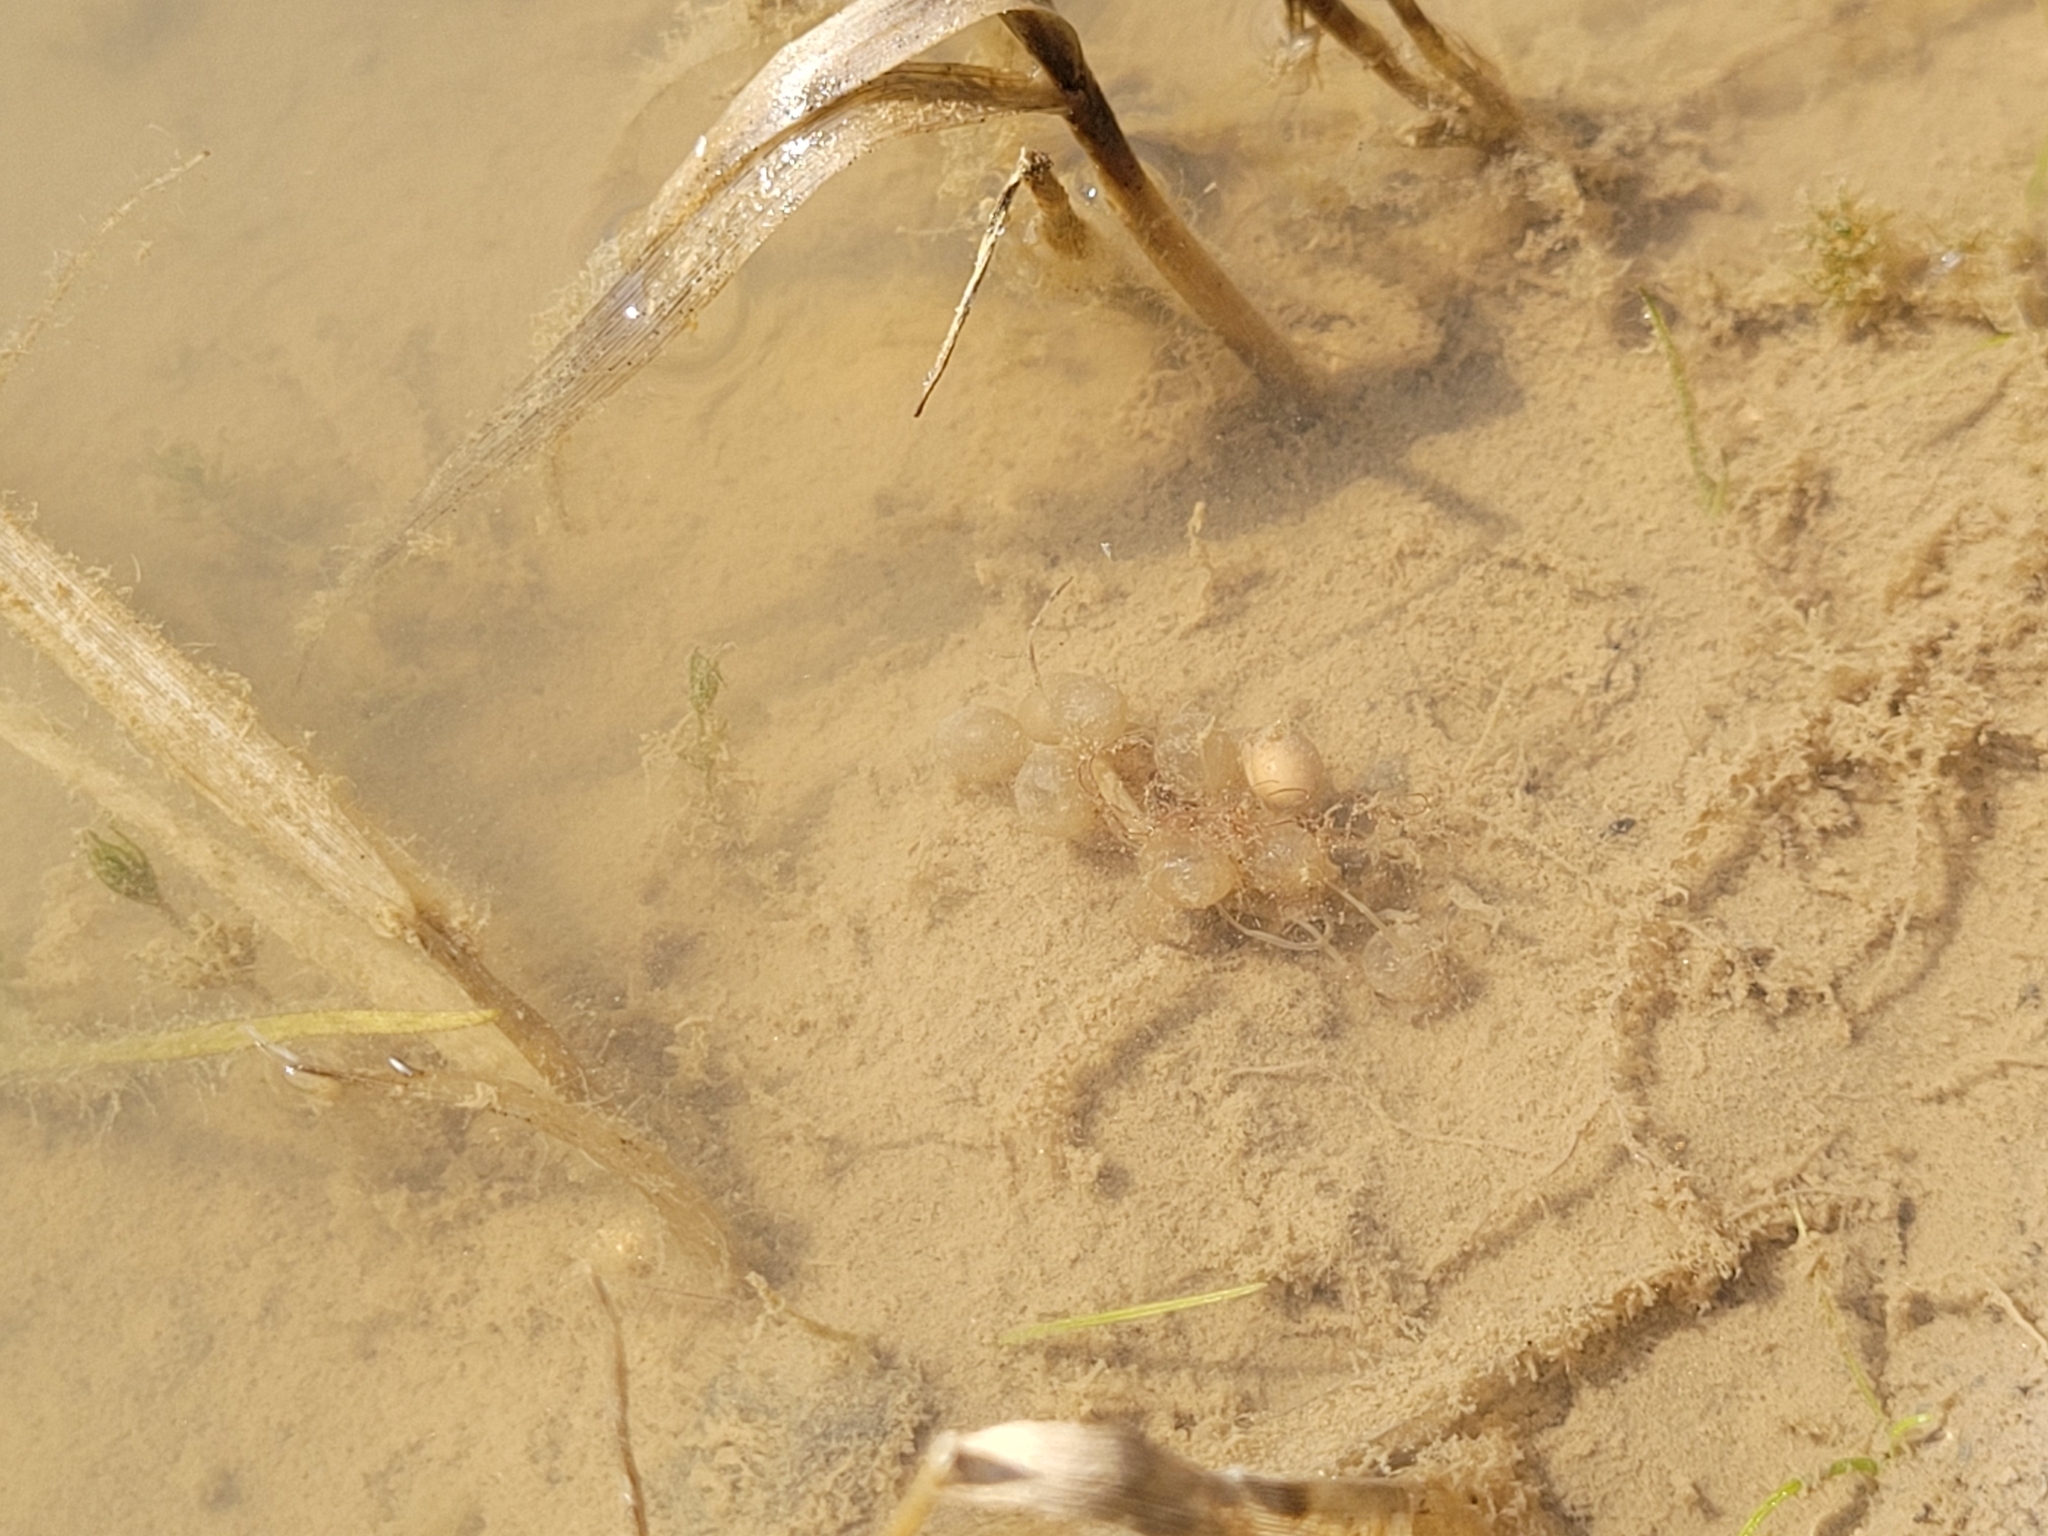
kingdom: Animalia
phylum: Chordata
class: Amphibia
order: Anura
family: Alytidae
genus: Alytes
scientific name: Alytes obstetricans
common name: Midwife toad
